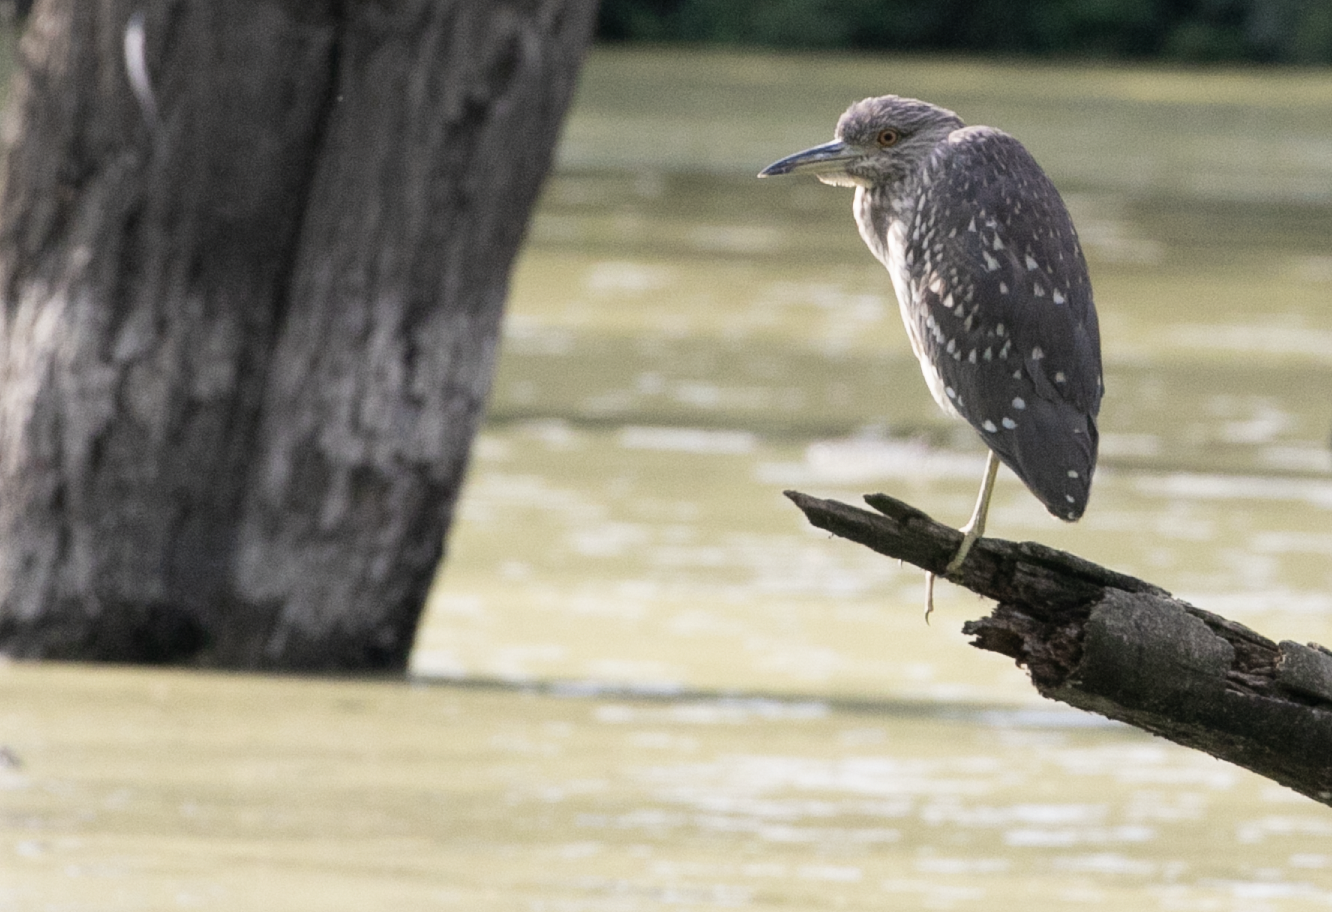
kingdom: Animalia
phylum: Chordata
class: Aves
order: Pelecaniformes
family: Ardeidae
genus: Nycticorax
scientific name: Nycticorax nycticorax
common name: Black-crowned night heron
